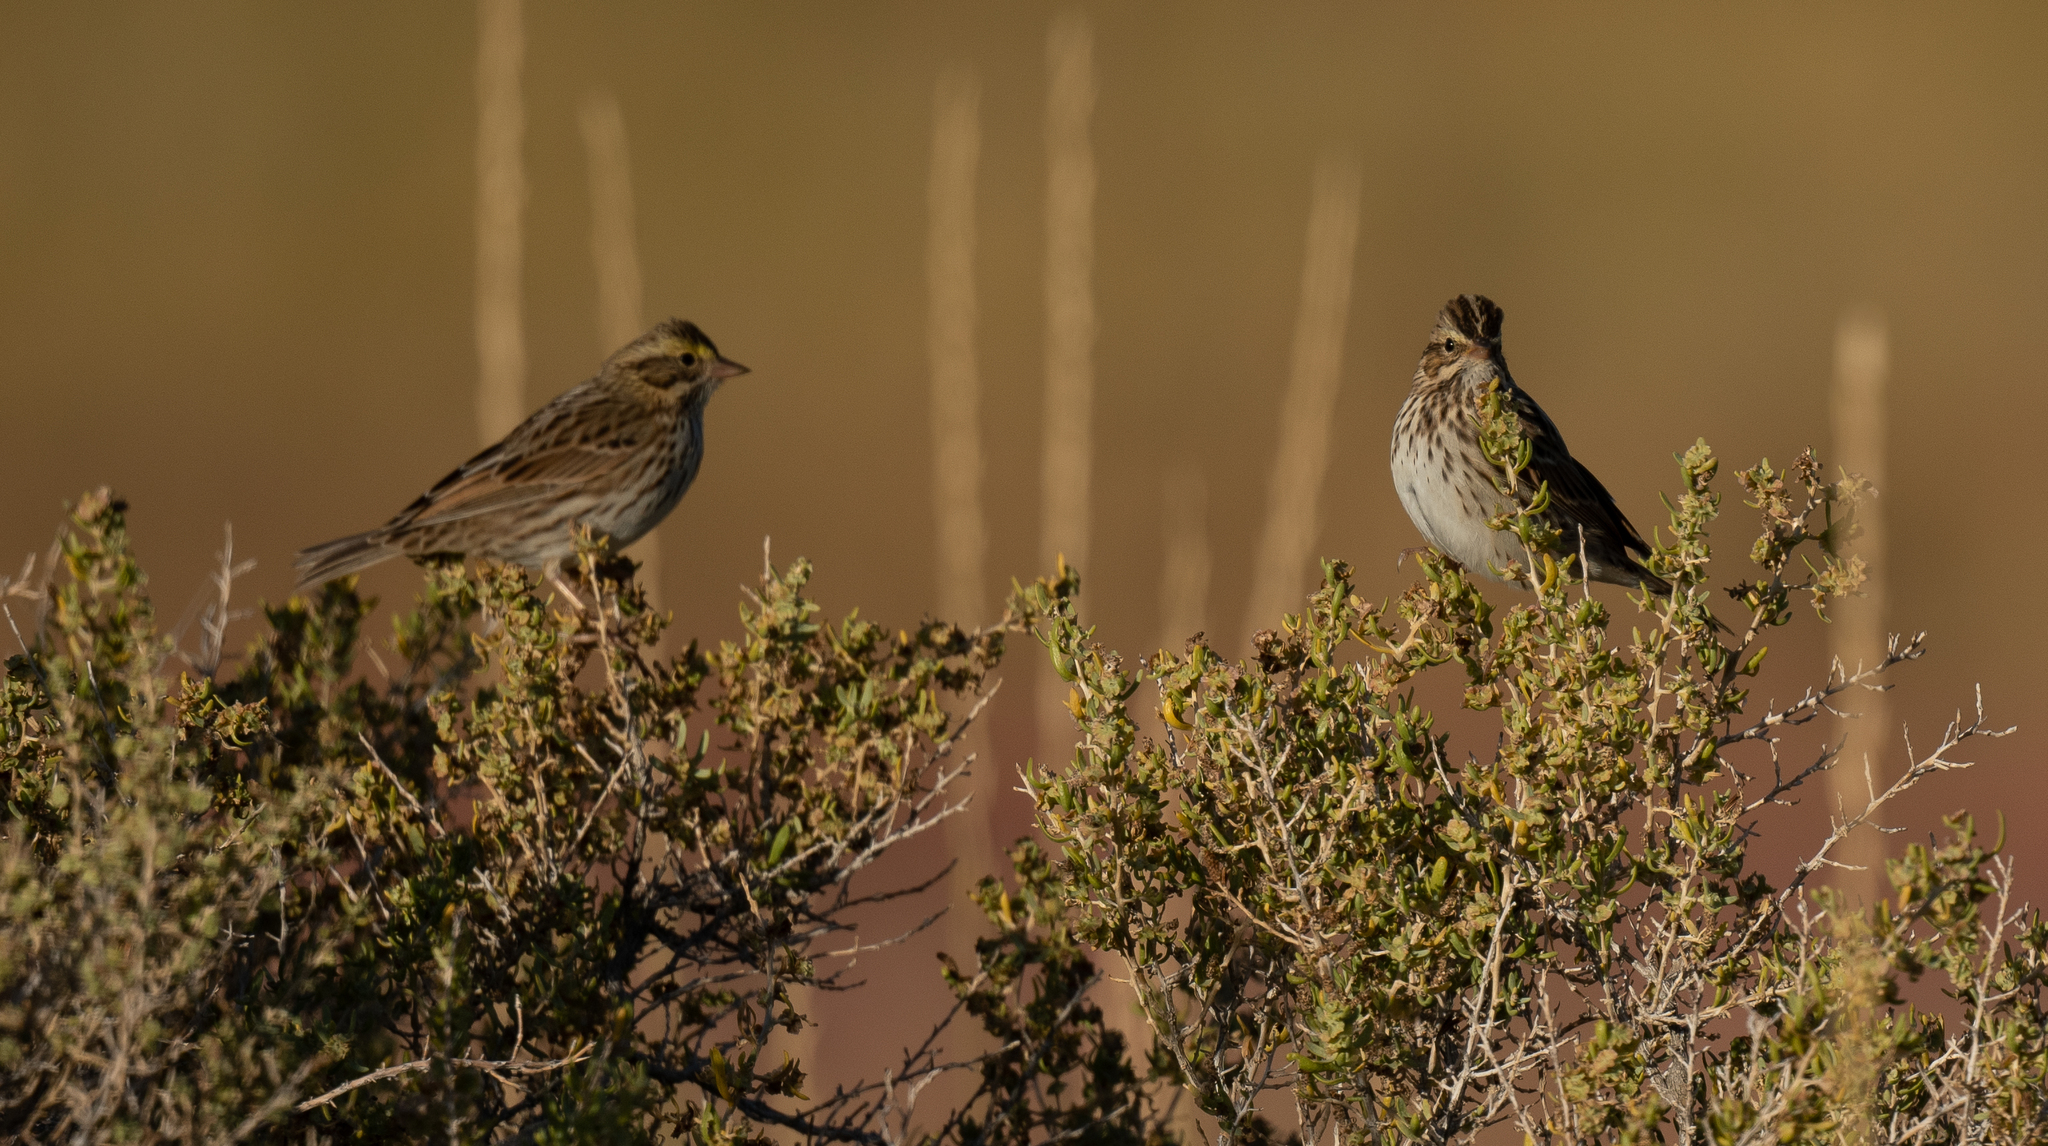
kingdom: Animalia
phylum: Chordata
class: Aves
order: Passeriformes
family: Passerellidae
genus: Passerculus
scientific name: Passerculus sandwichensis
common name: Savannah sparrow
